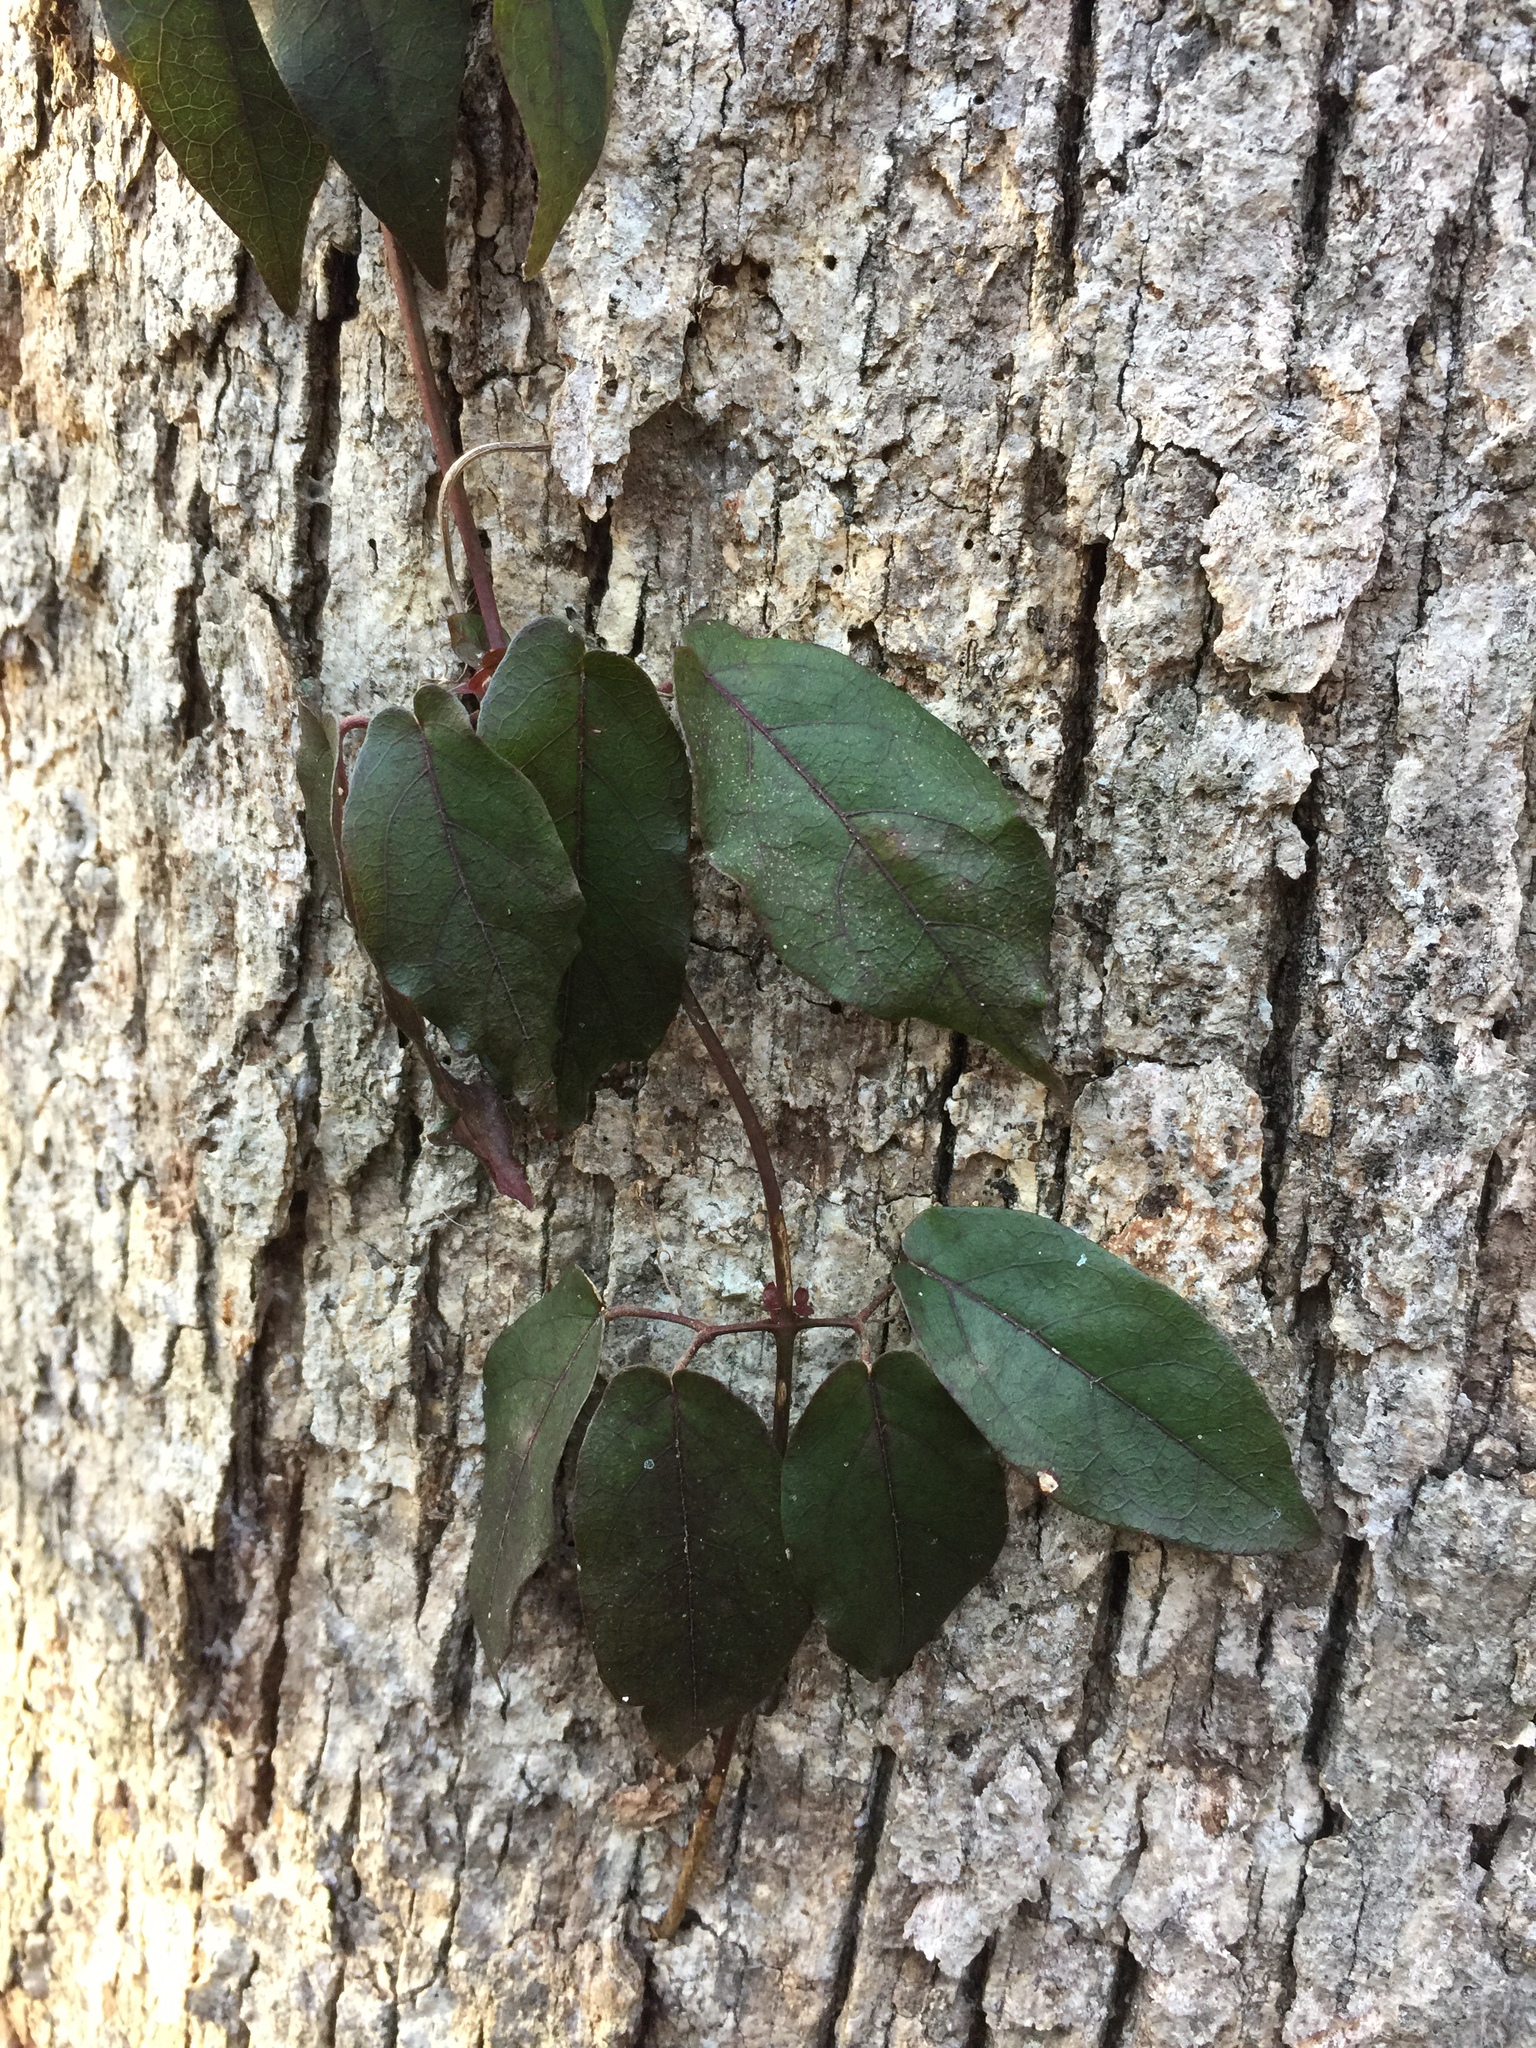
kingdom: Plantae
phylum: Tracheophyta
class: Magnoliopsida
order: Lamiales
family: Bignoniaceae
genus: Bignonia
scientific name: Bignonia capreolata
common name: Crossvine
